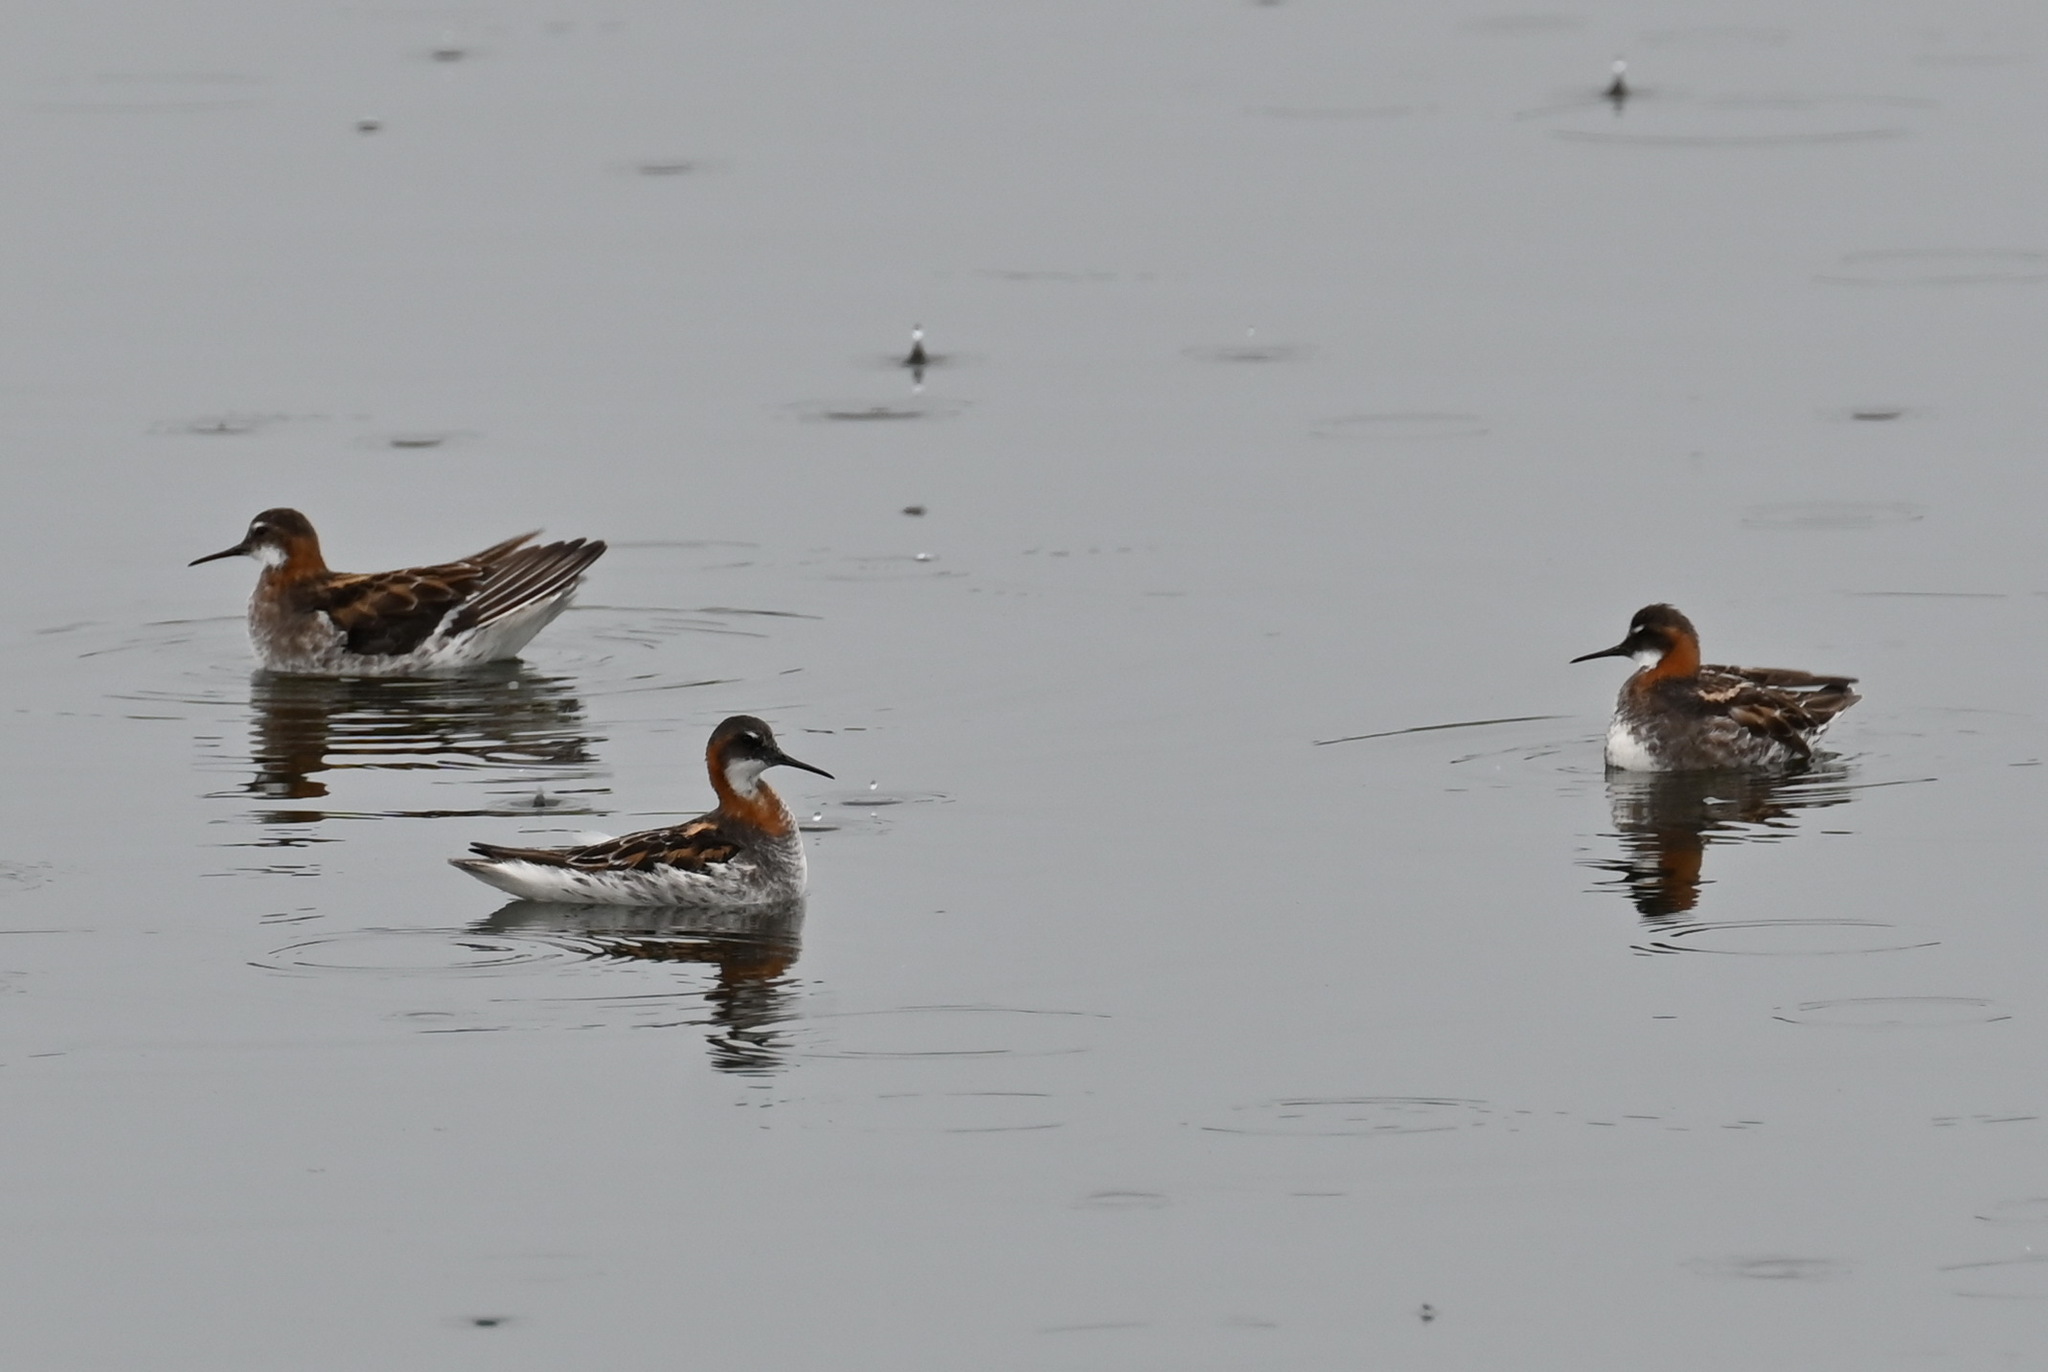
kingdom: Animalia
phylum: Chordata
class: Aves
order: Charadriiformes
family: Scolopacidae
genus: Phalaropus
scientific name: Phalaropus lobatus
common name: Red-necked phalarope
